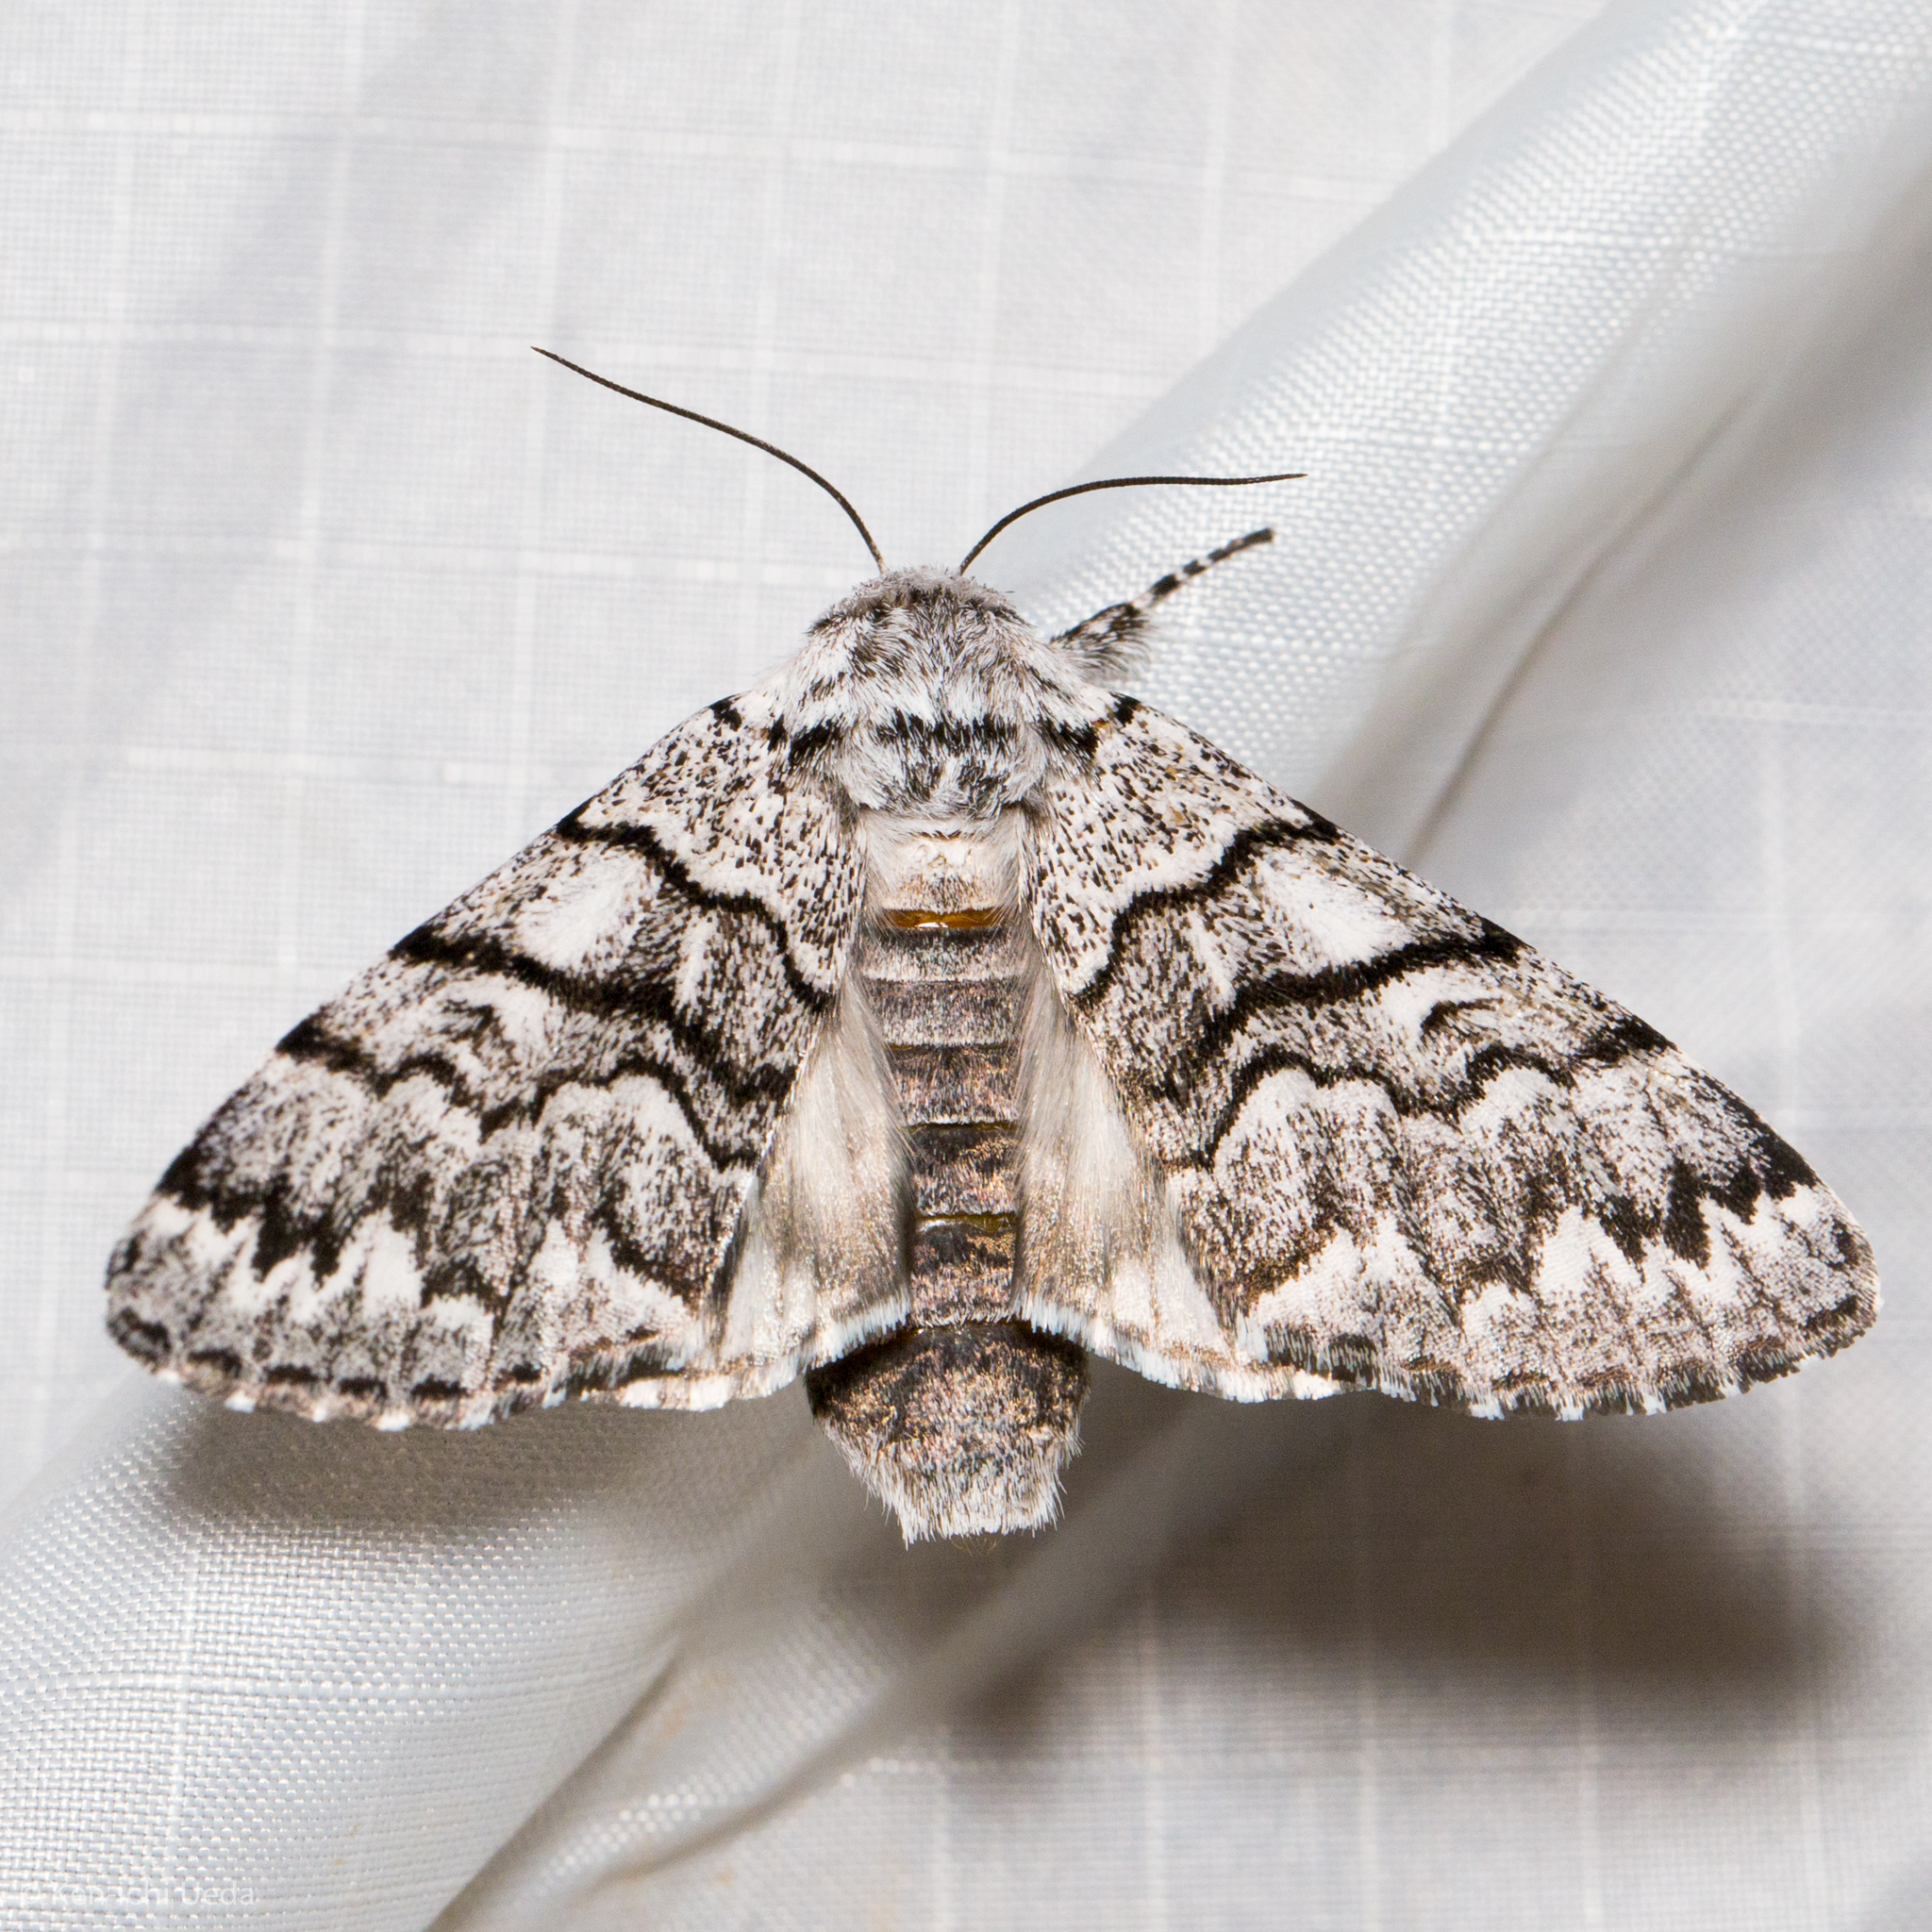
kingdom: Animalia
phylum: Arthropoda
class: Insecta
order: Lepidoptera
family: Noctuidae
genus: Panthea
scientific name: Panthea virginarius
